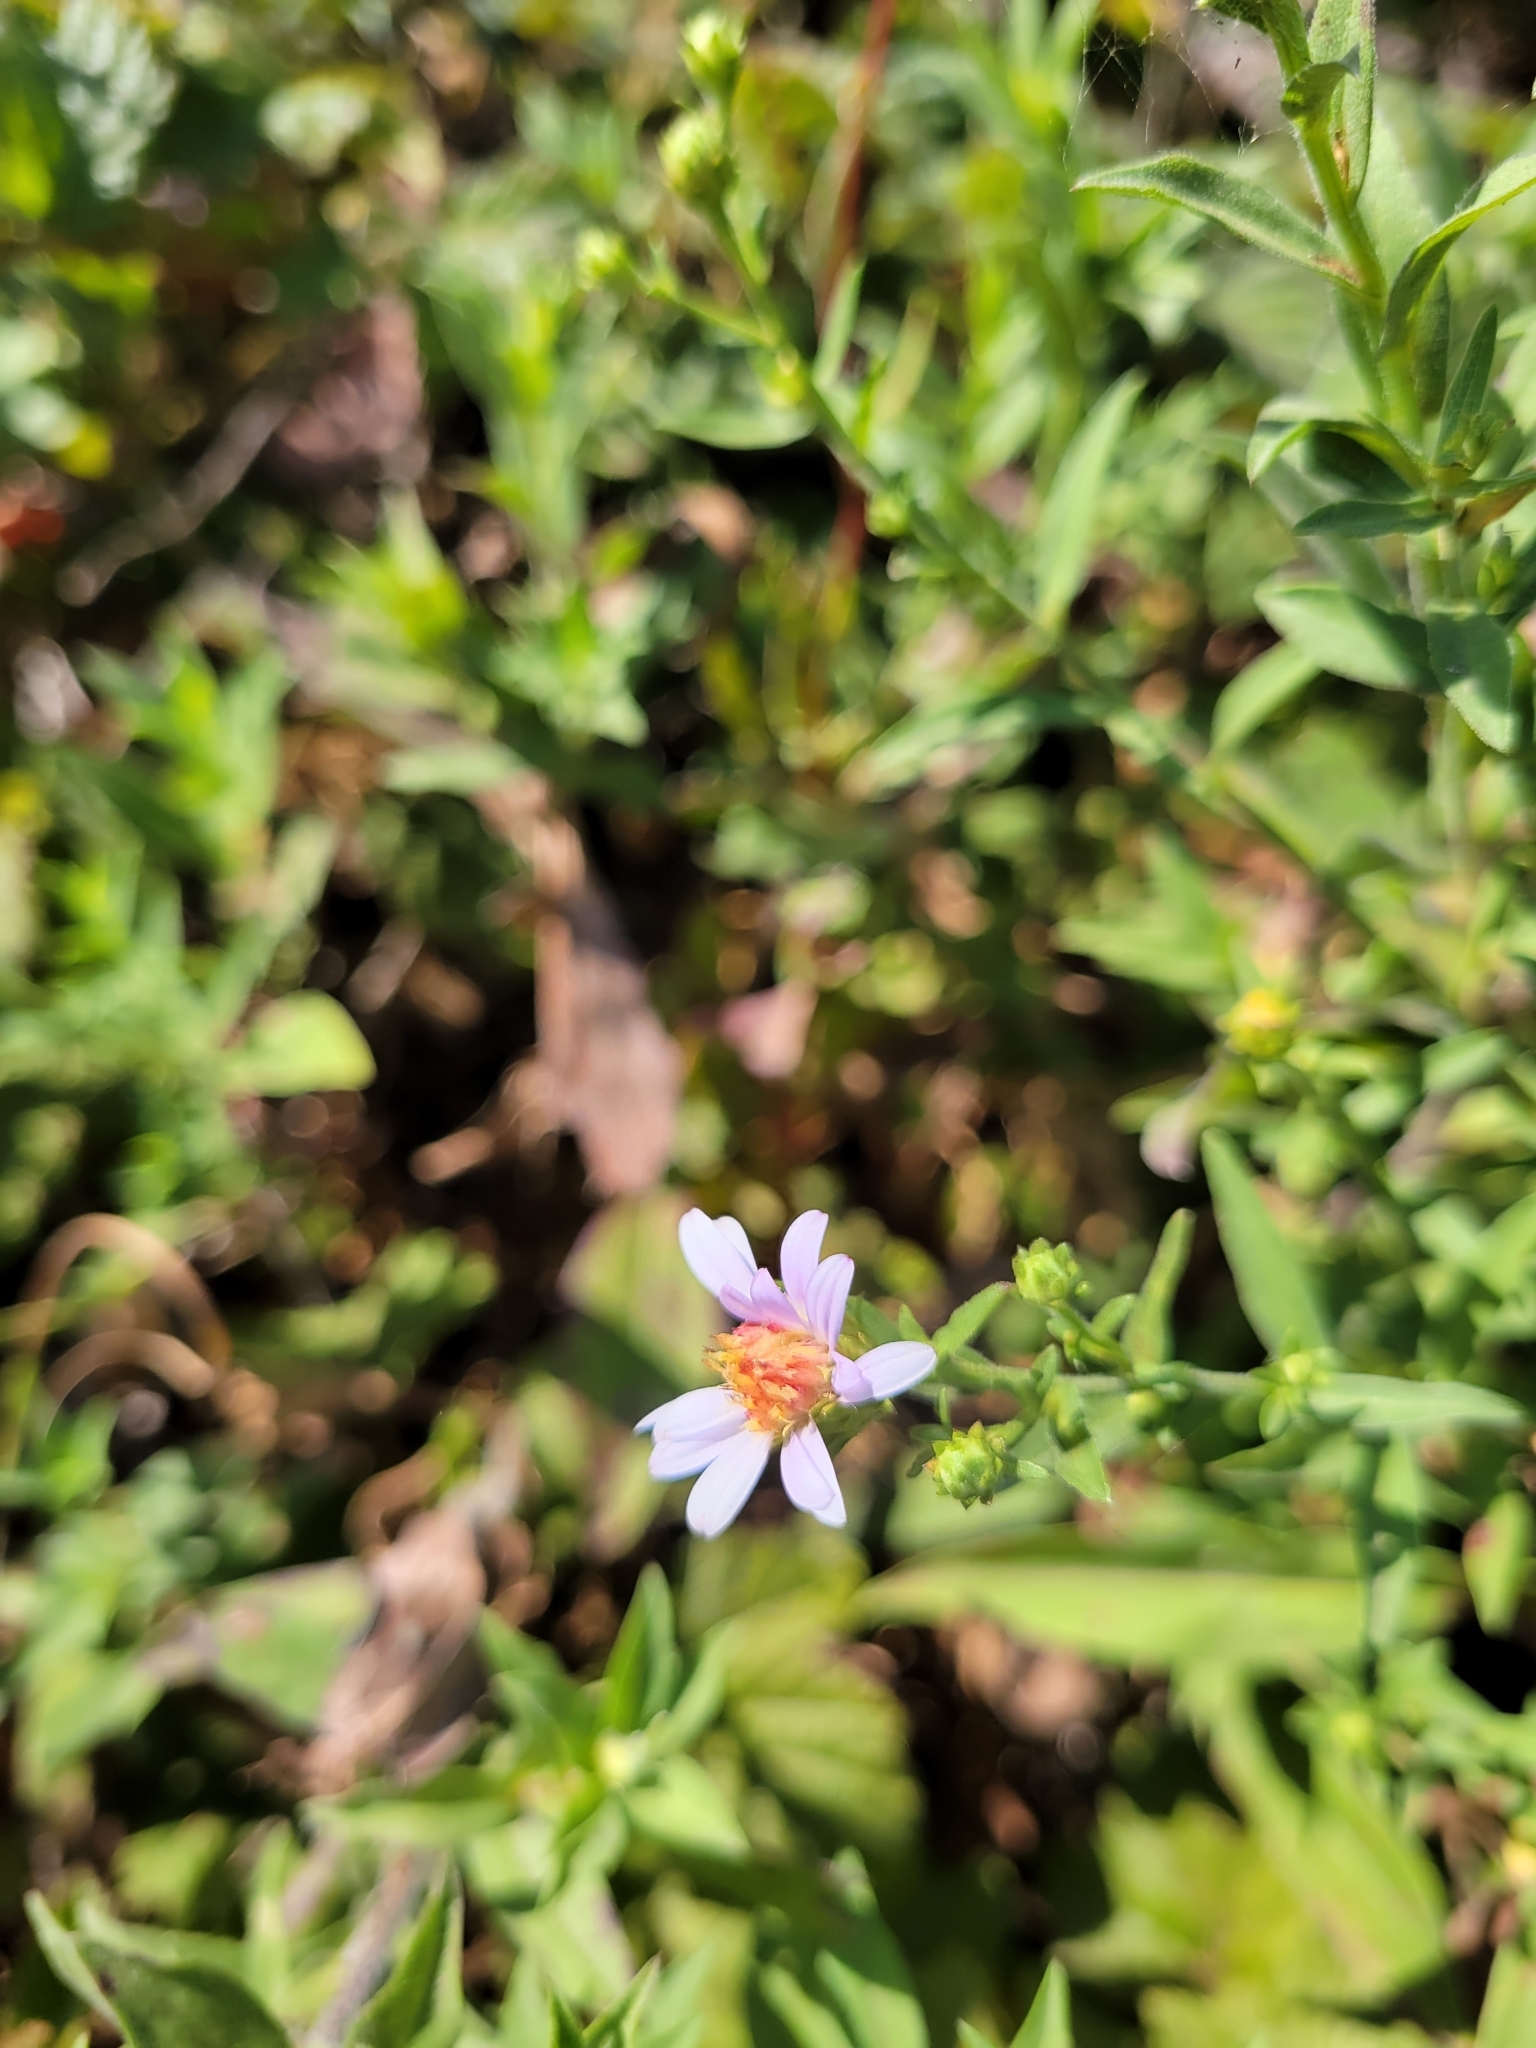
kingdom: Plantae
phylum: Tracheophyta
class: Magnoliopsida
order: Asterales
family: Asteraceae
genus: Symphyotrichum
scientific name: Symphyotrichum chilense
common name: Pacific aster
